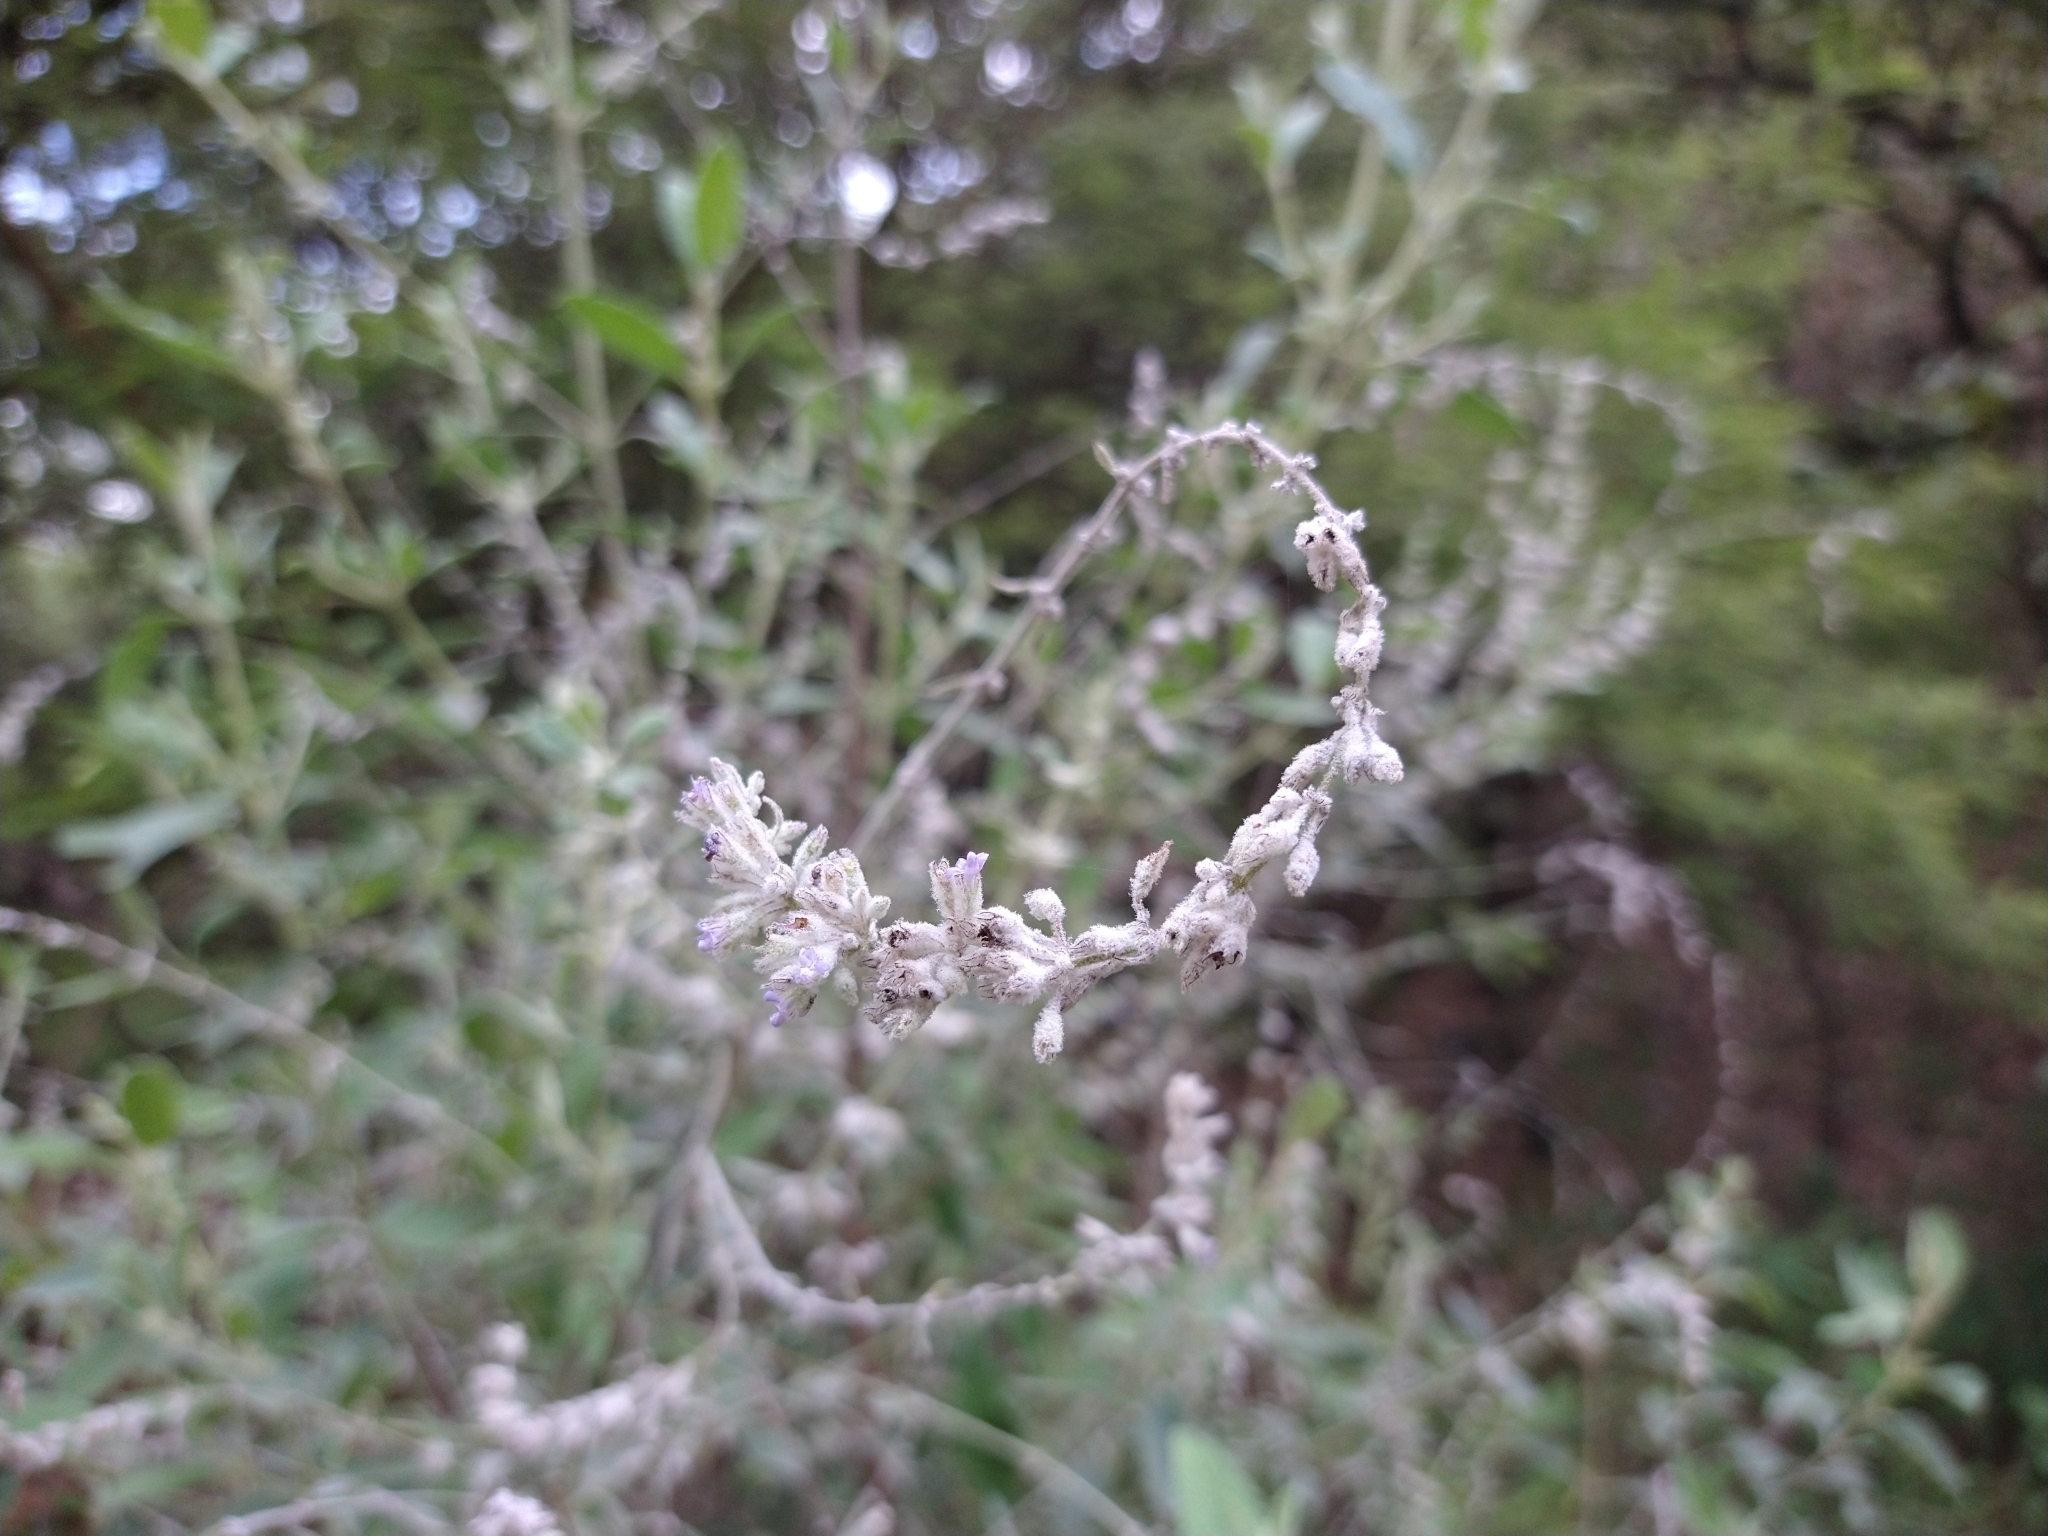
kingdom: Plantae
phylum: Tracheophyta
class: Magnoliopsida
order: Lamiales
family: Lamiaceae
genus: Condea
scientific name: Condea albida
